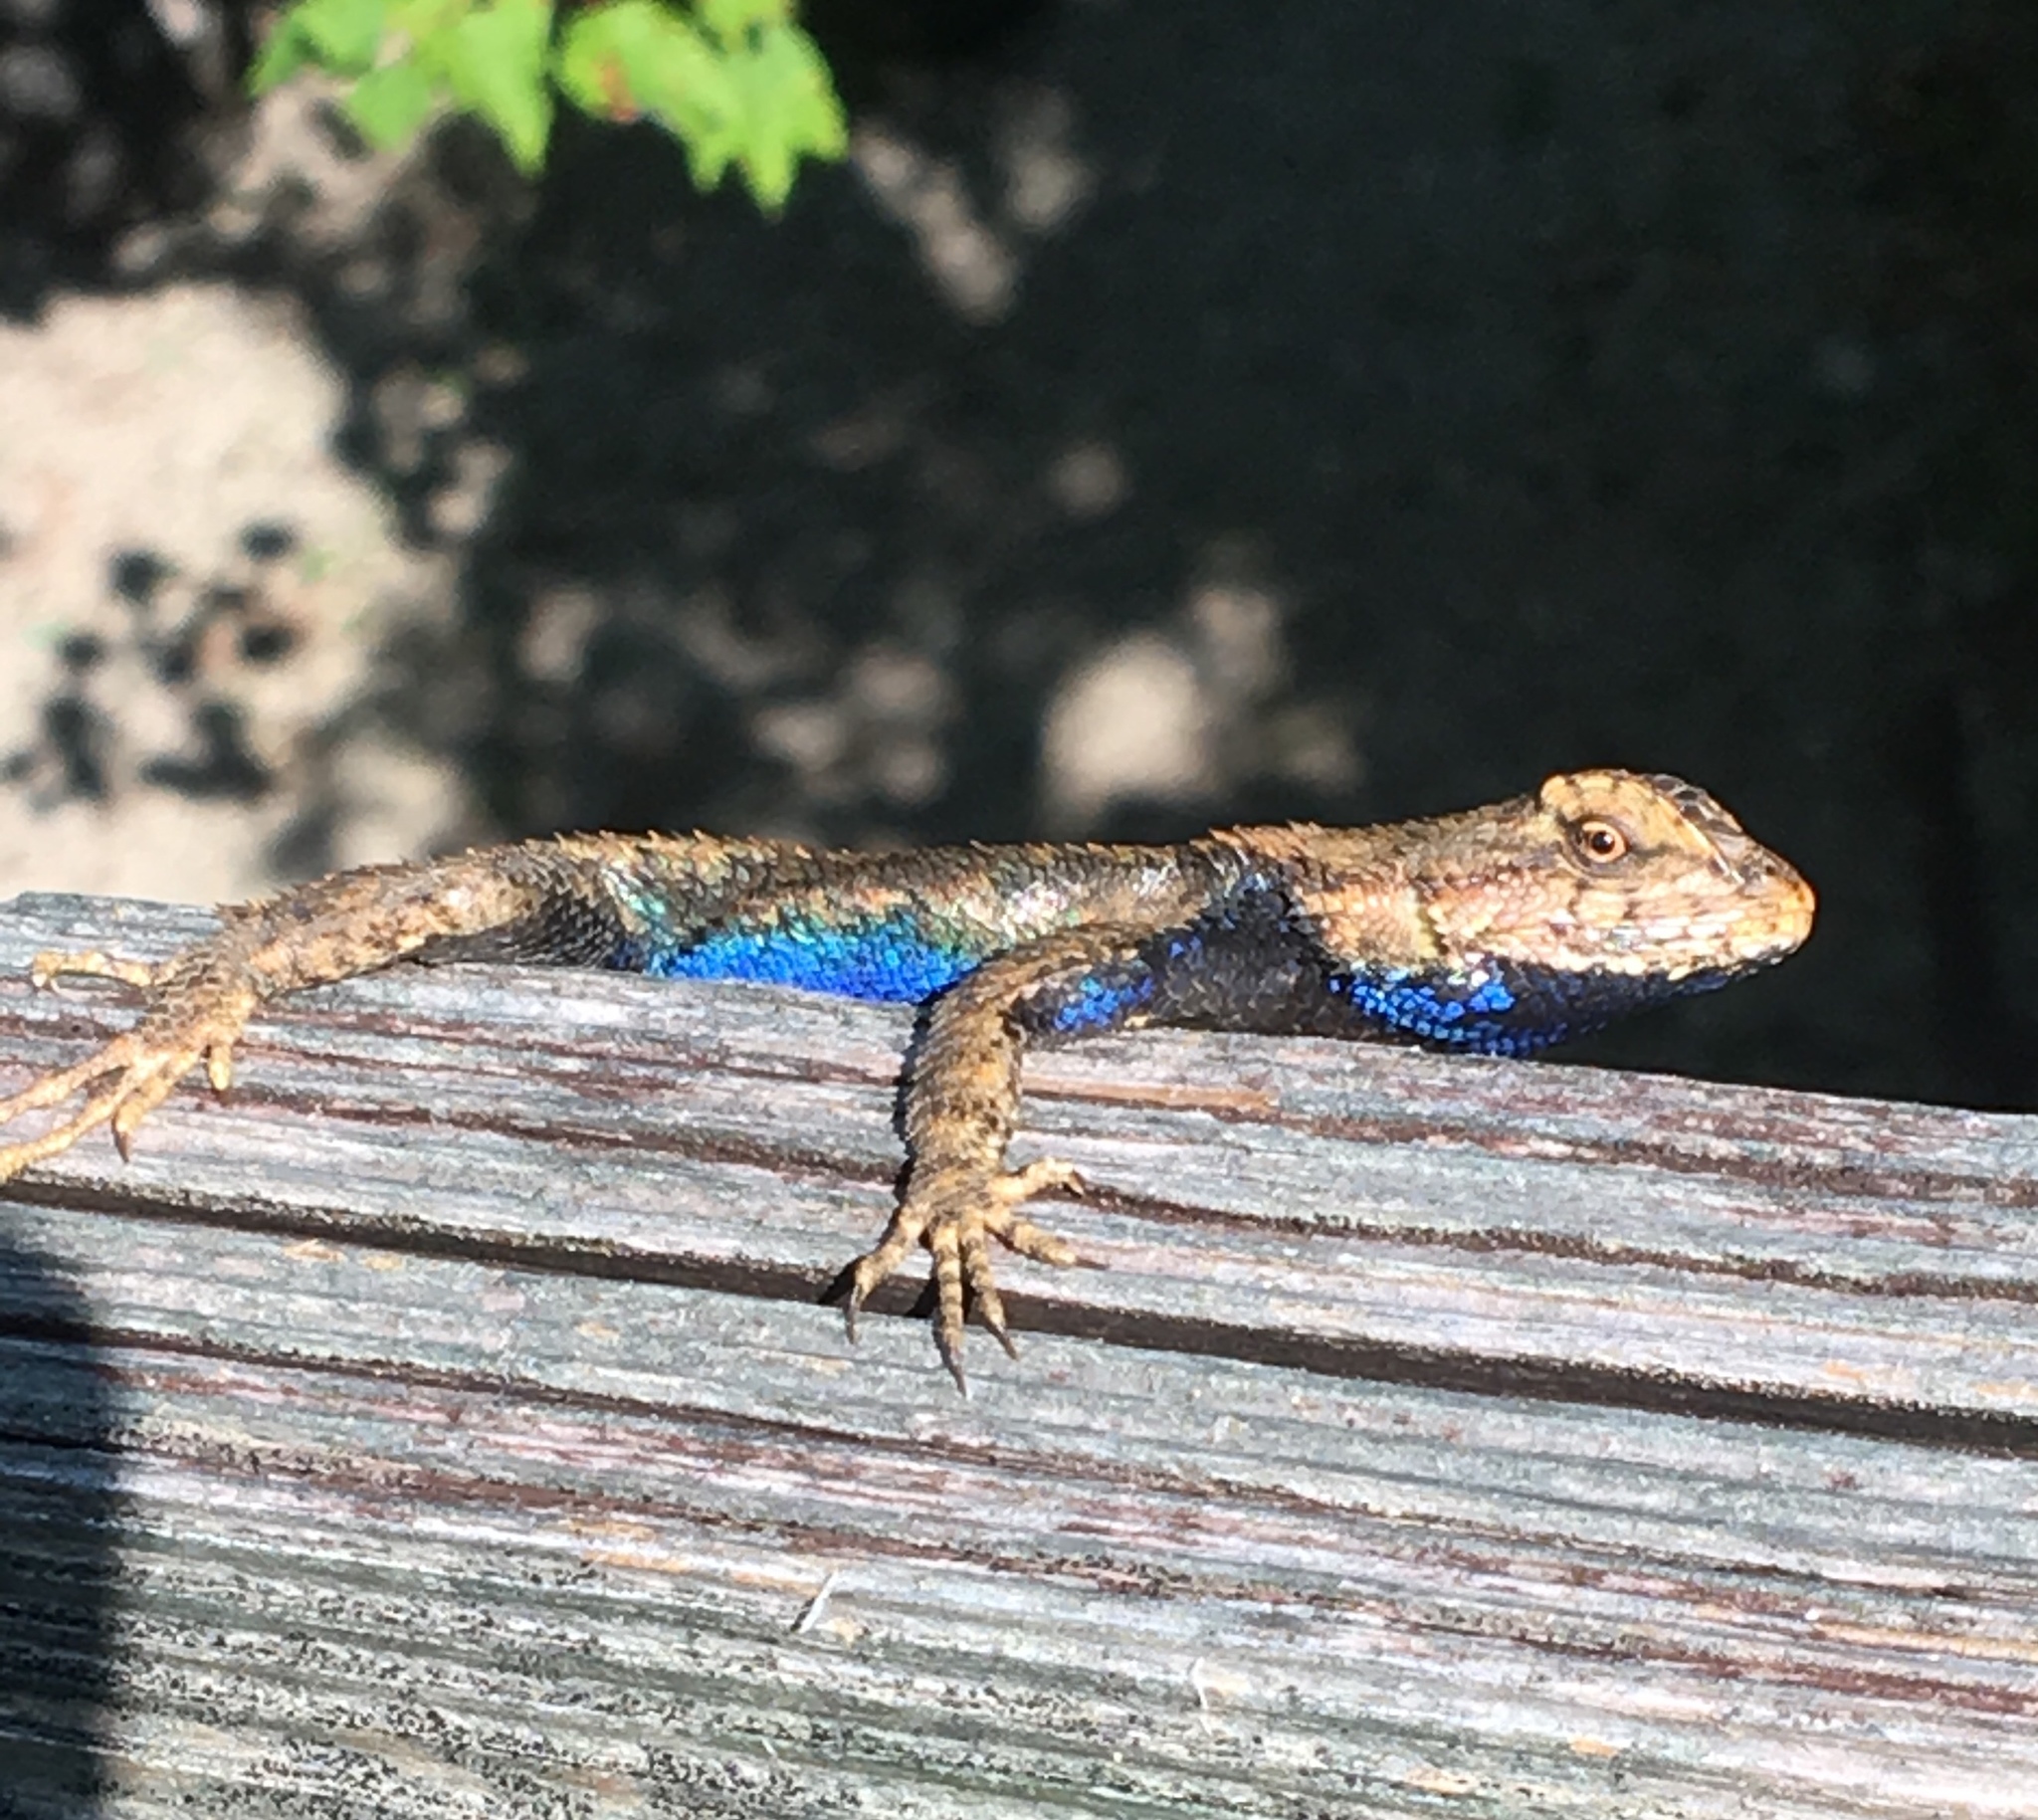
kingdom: Animalia
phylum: Chordata
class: Squamata
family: Phrynosomatidae
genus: Sceloporus
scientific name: Sceloporus undulatus
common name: Eastern fence lizard
